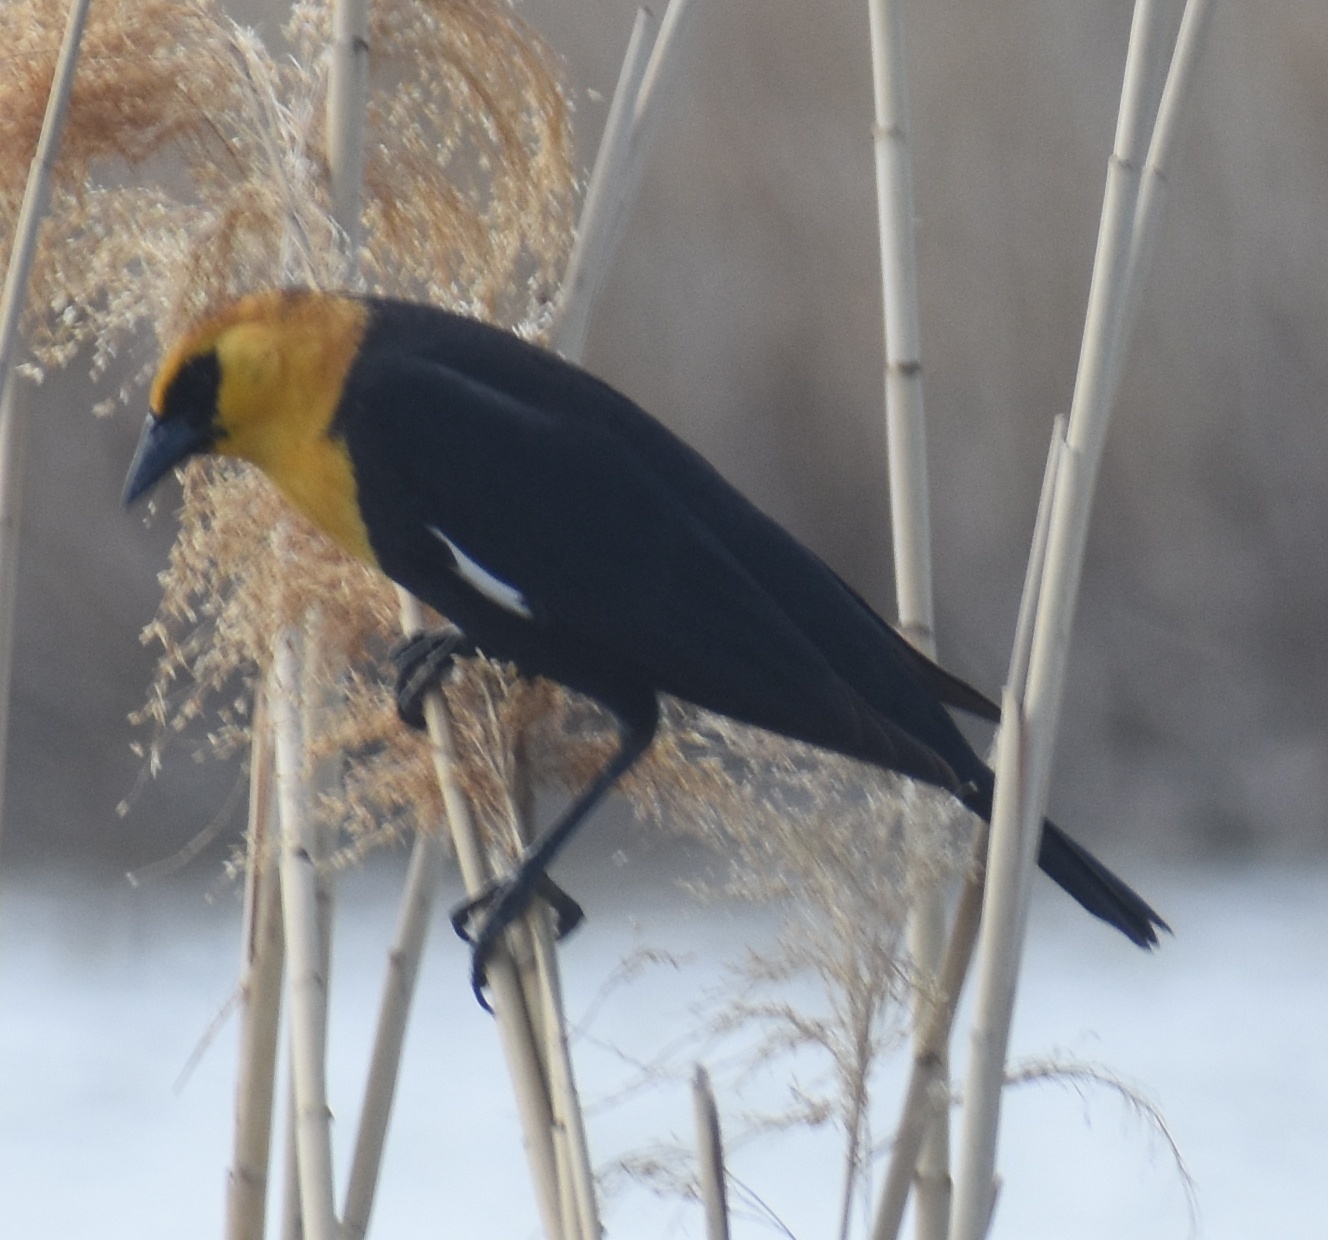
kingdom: Animalia
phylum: Chordata
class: Aves
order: Passeriformes
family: Icteridae
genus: Xanthocephalus
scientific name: Xanthocephalus xanthocephalus
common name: Yellow-headed blackbird
